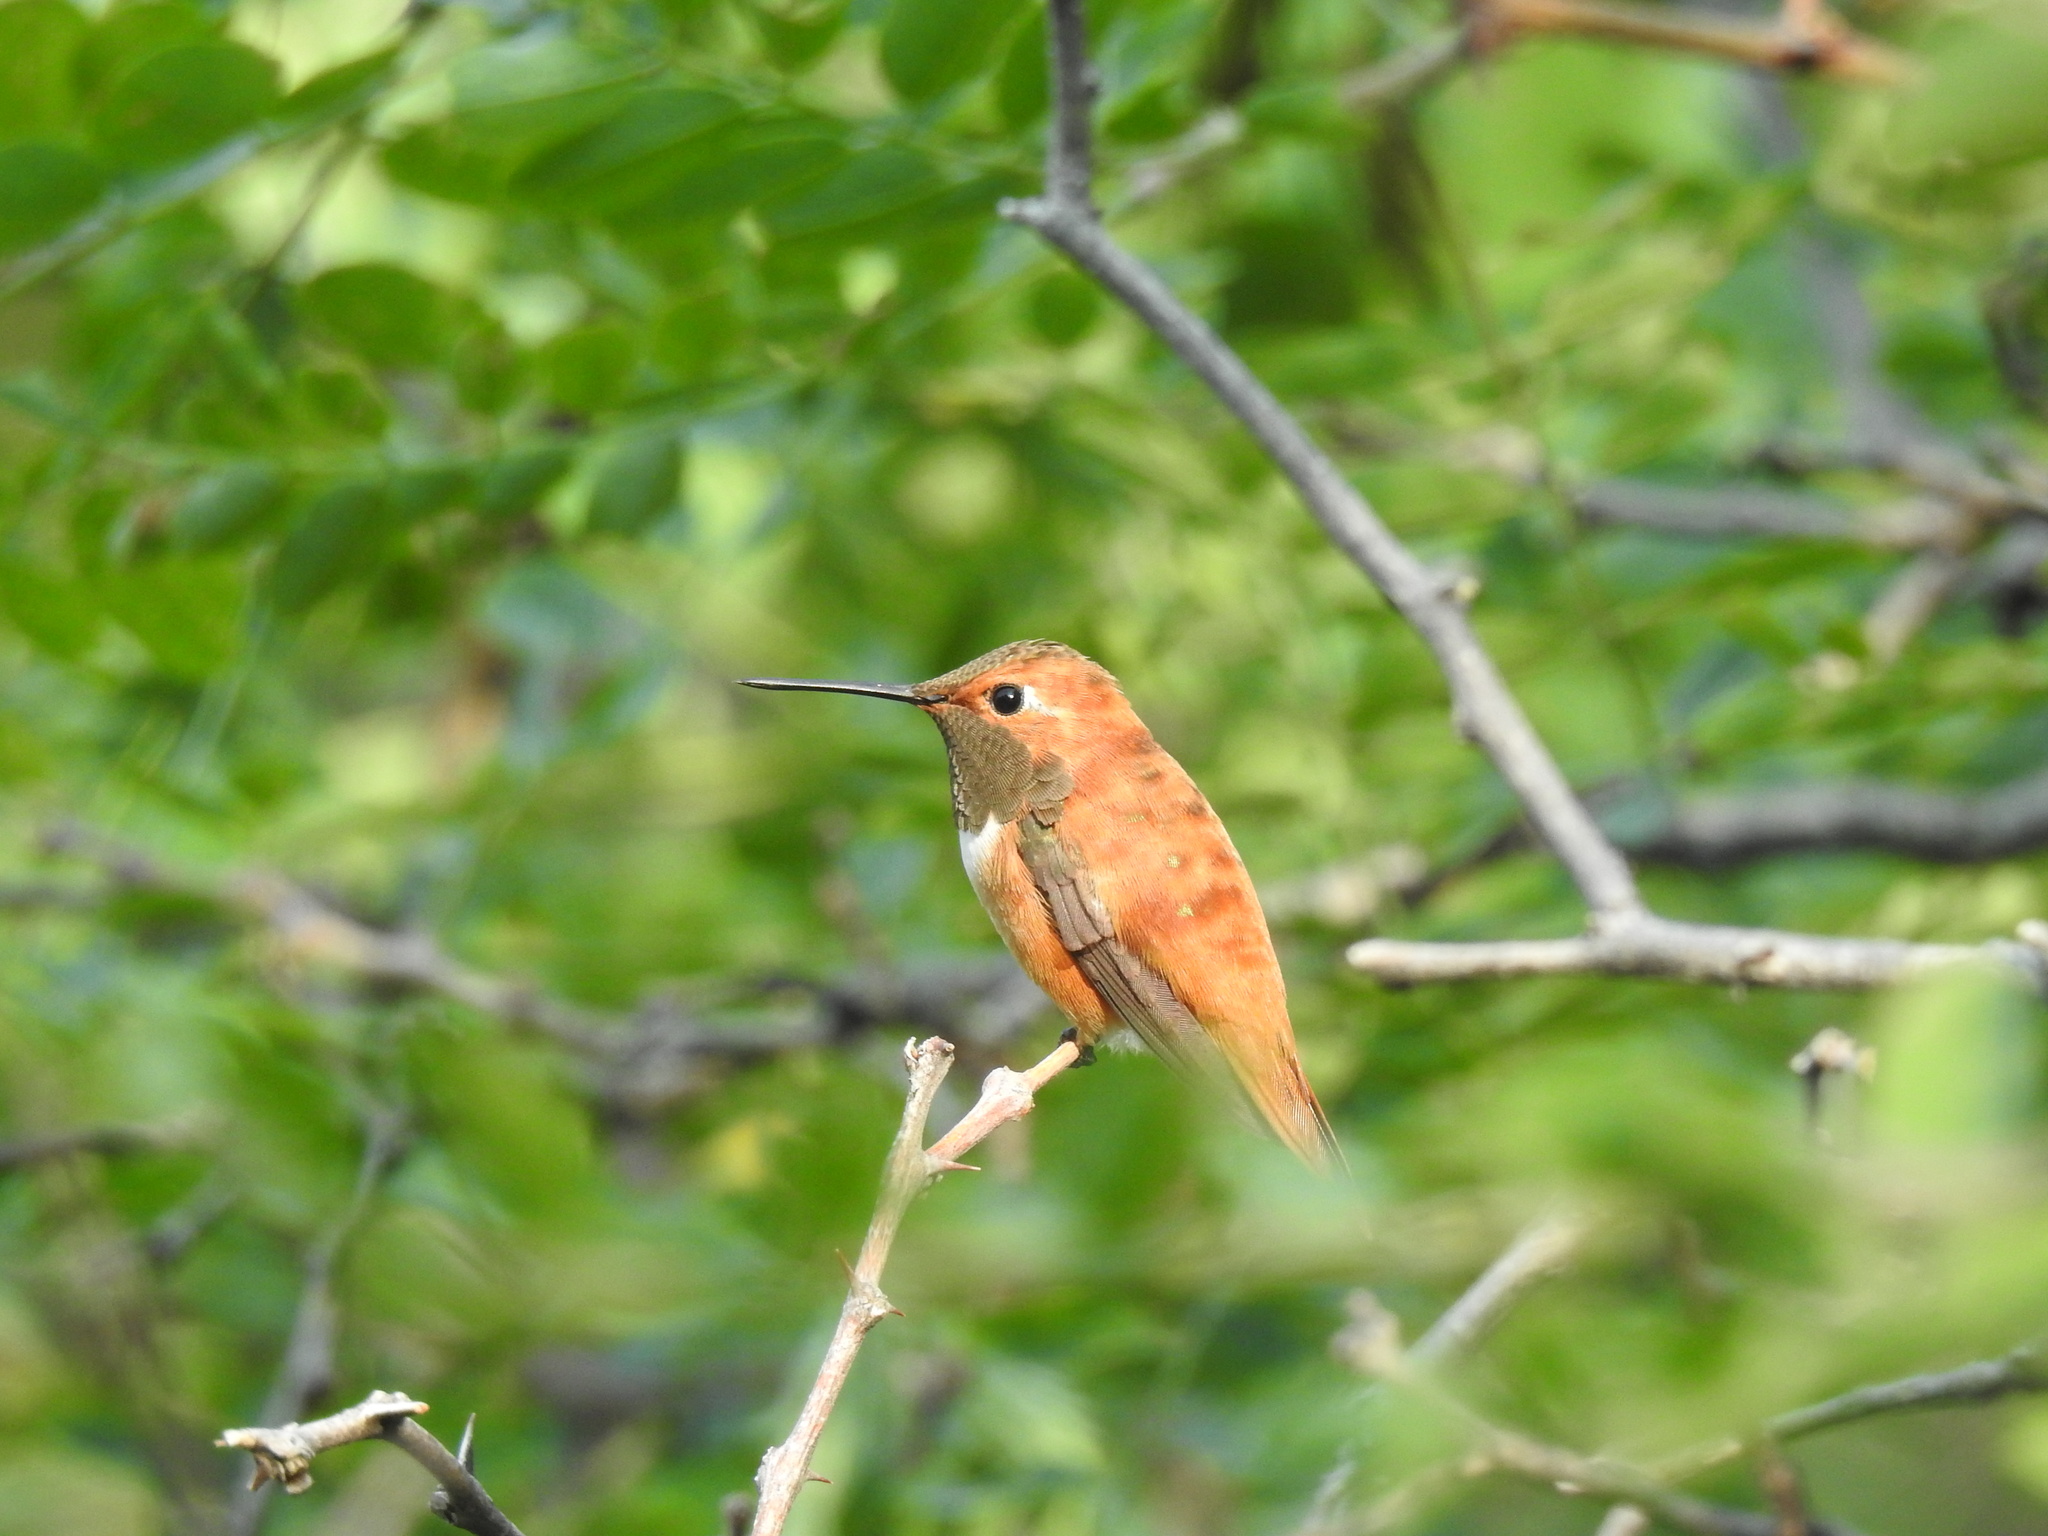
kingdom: Animalia
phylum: Chordata
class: Aves
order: Apodiformes
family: Trochilidae
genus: Selasphorus
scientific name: Selasphorus rufus
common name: Rufous hummingbird
